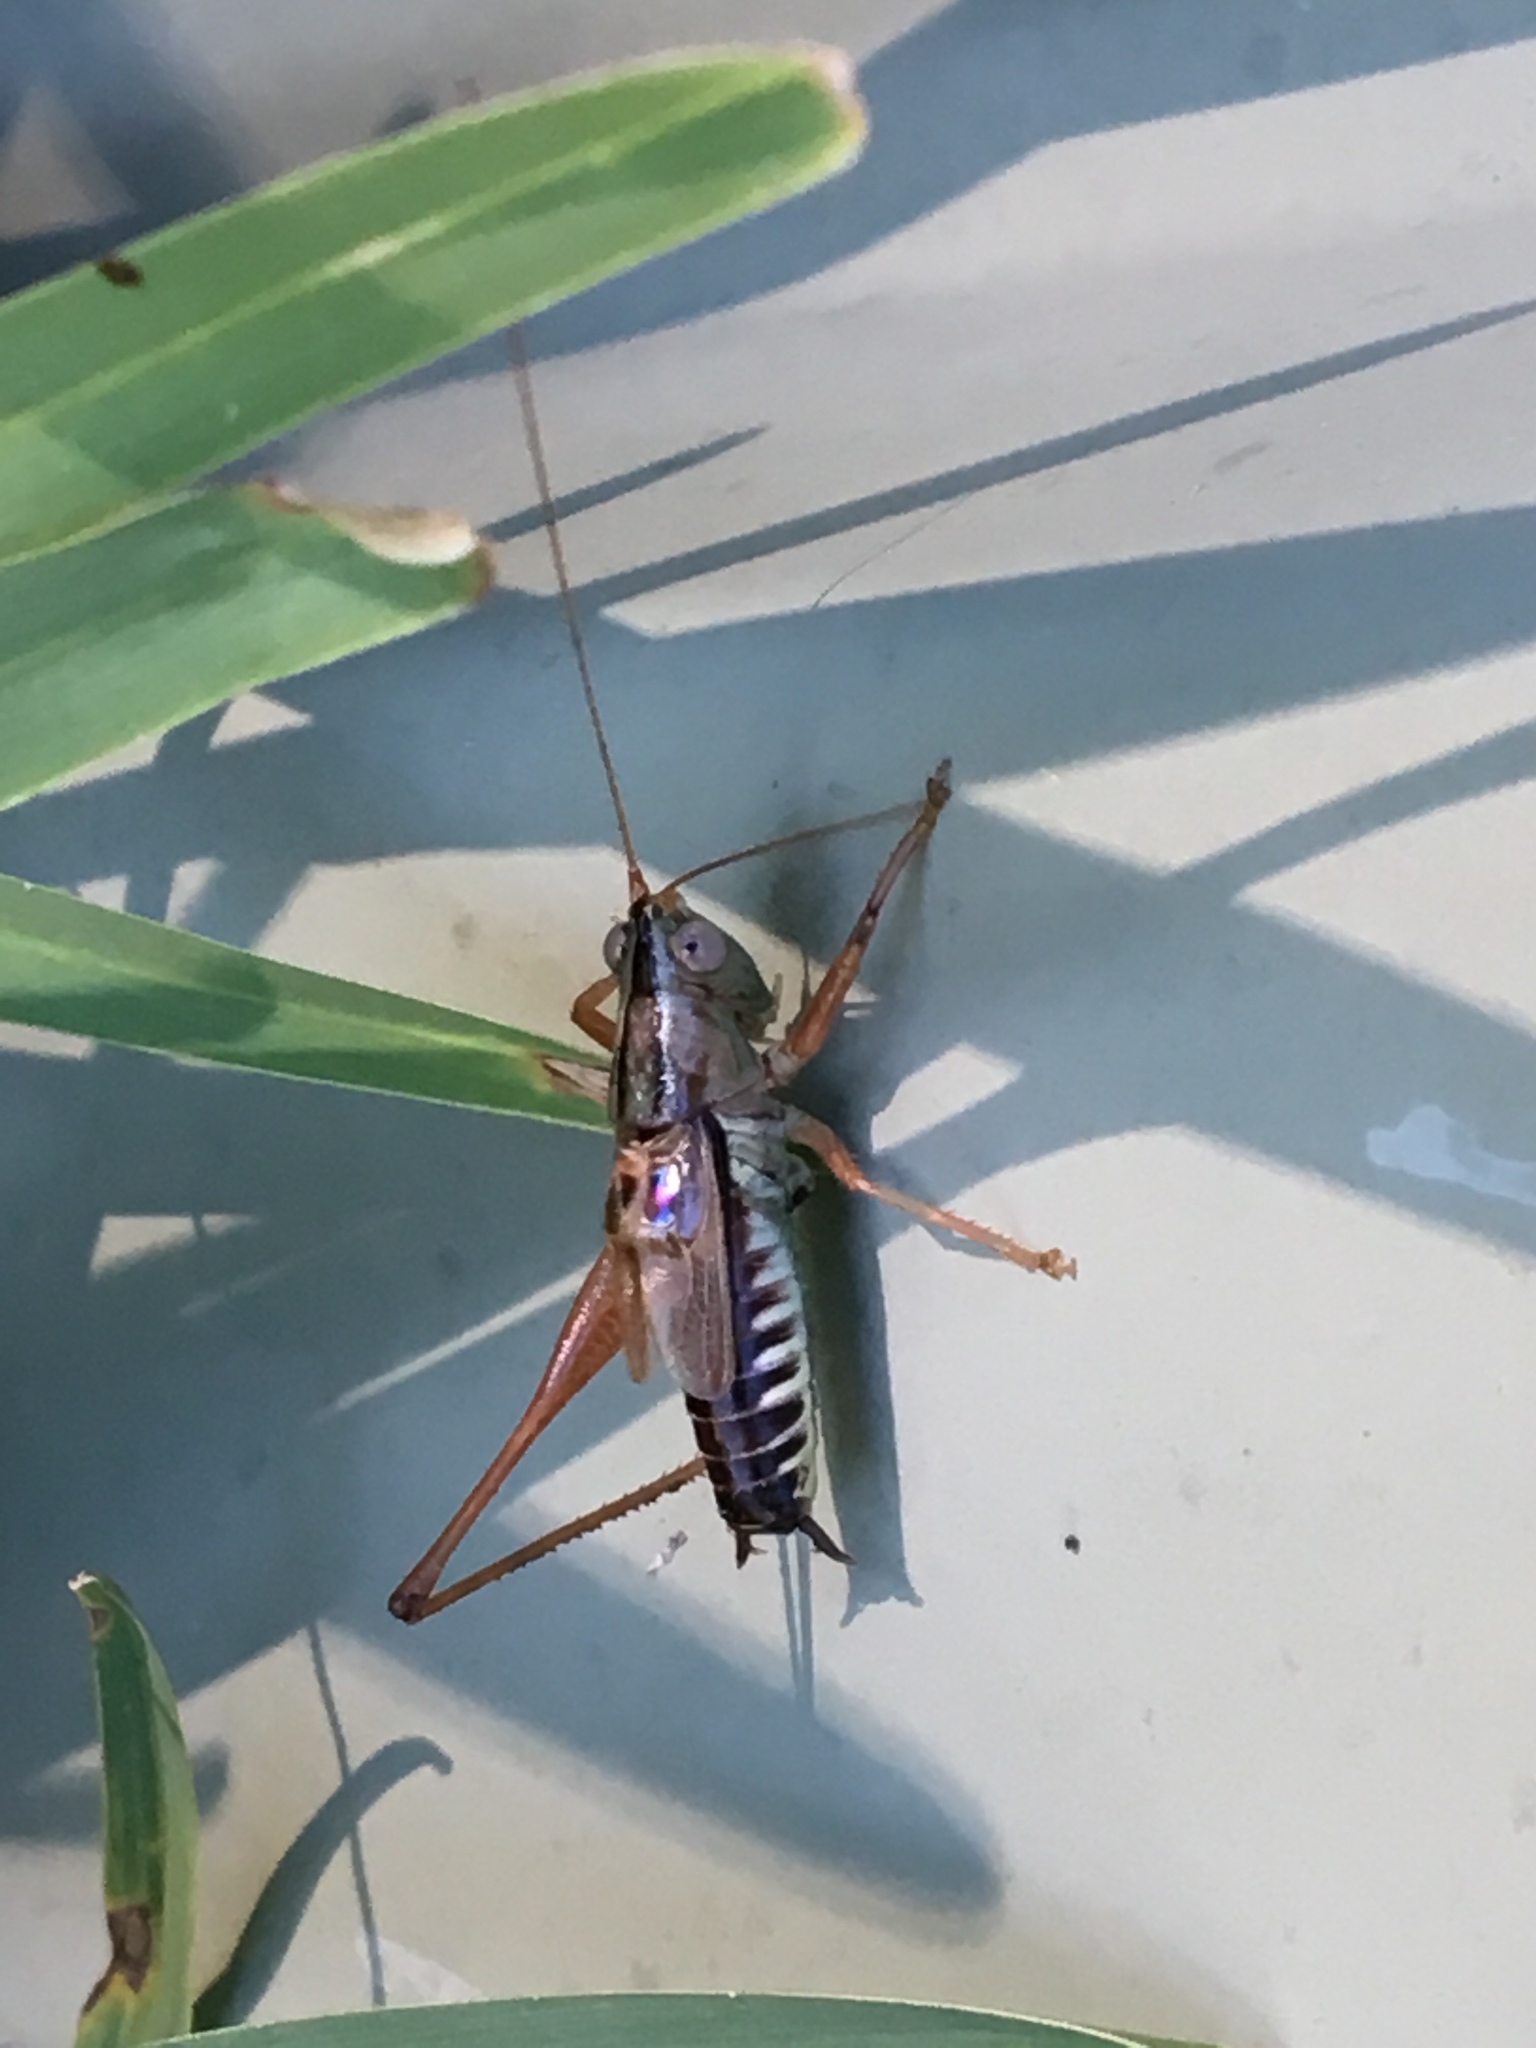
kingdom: Animalia
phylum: Arthropoda
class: Insecta
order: Orthoptera
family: Tettigoniidae
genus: Conocephalus
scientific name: Conocephalus semivittatus
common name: Blackish meadow katydid
